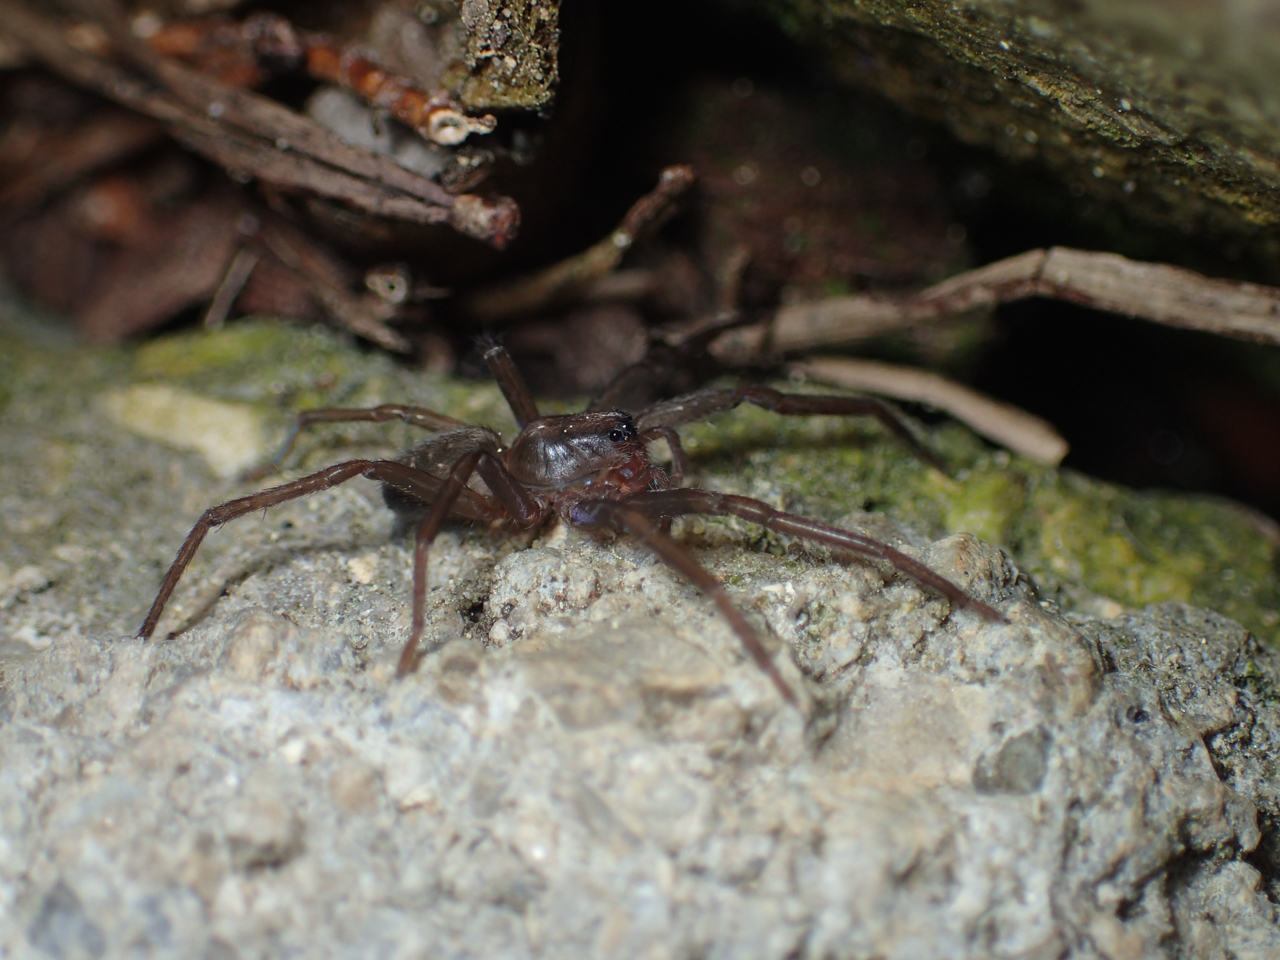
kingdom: Animalia
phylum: Arthropoda
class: Arachnida
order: Araneae
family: Ctenidae
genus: Ctenus
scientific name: Ctenus hibernalis
